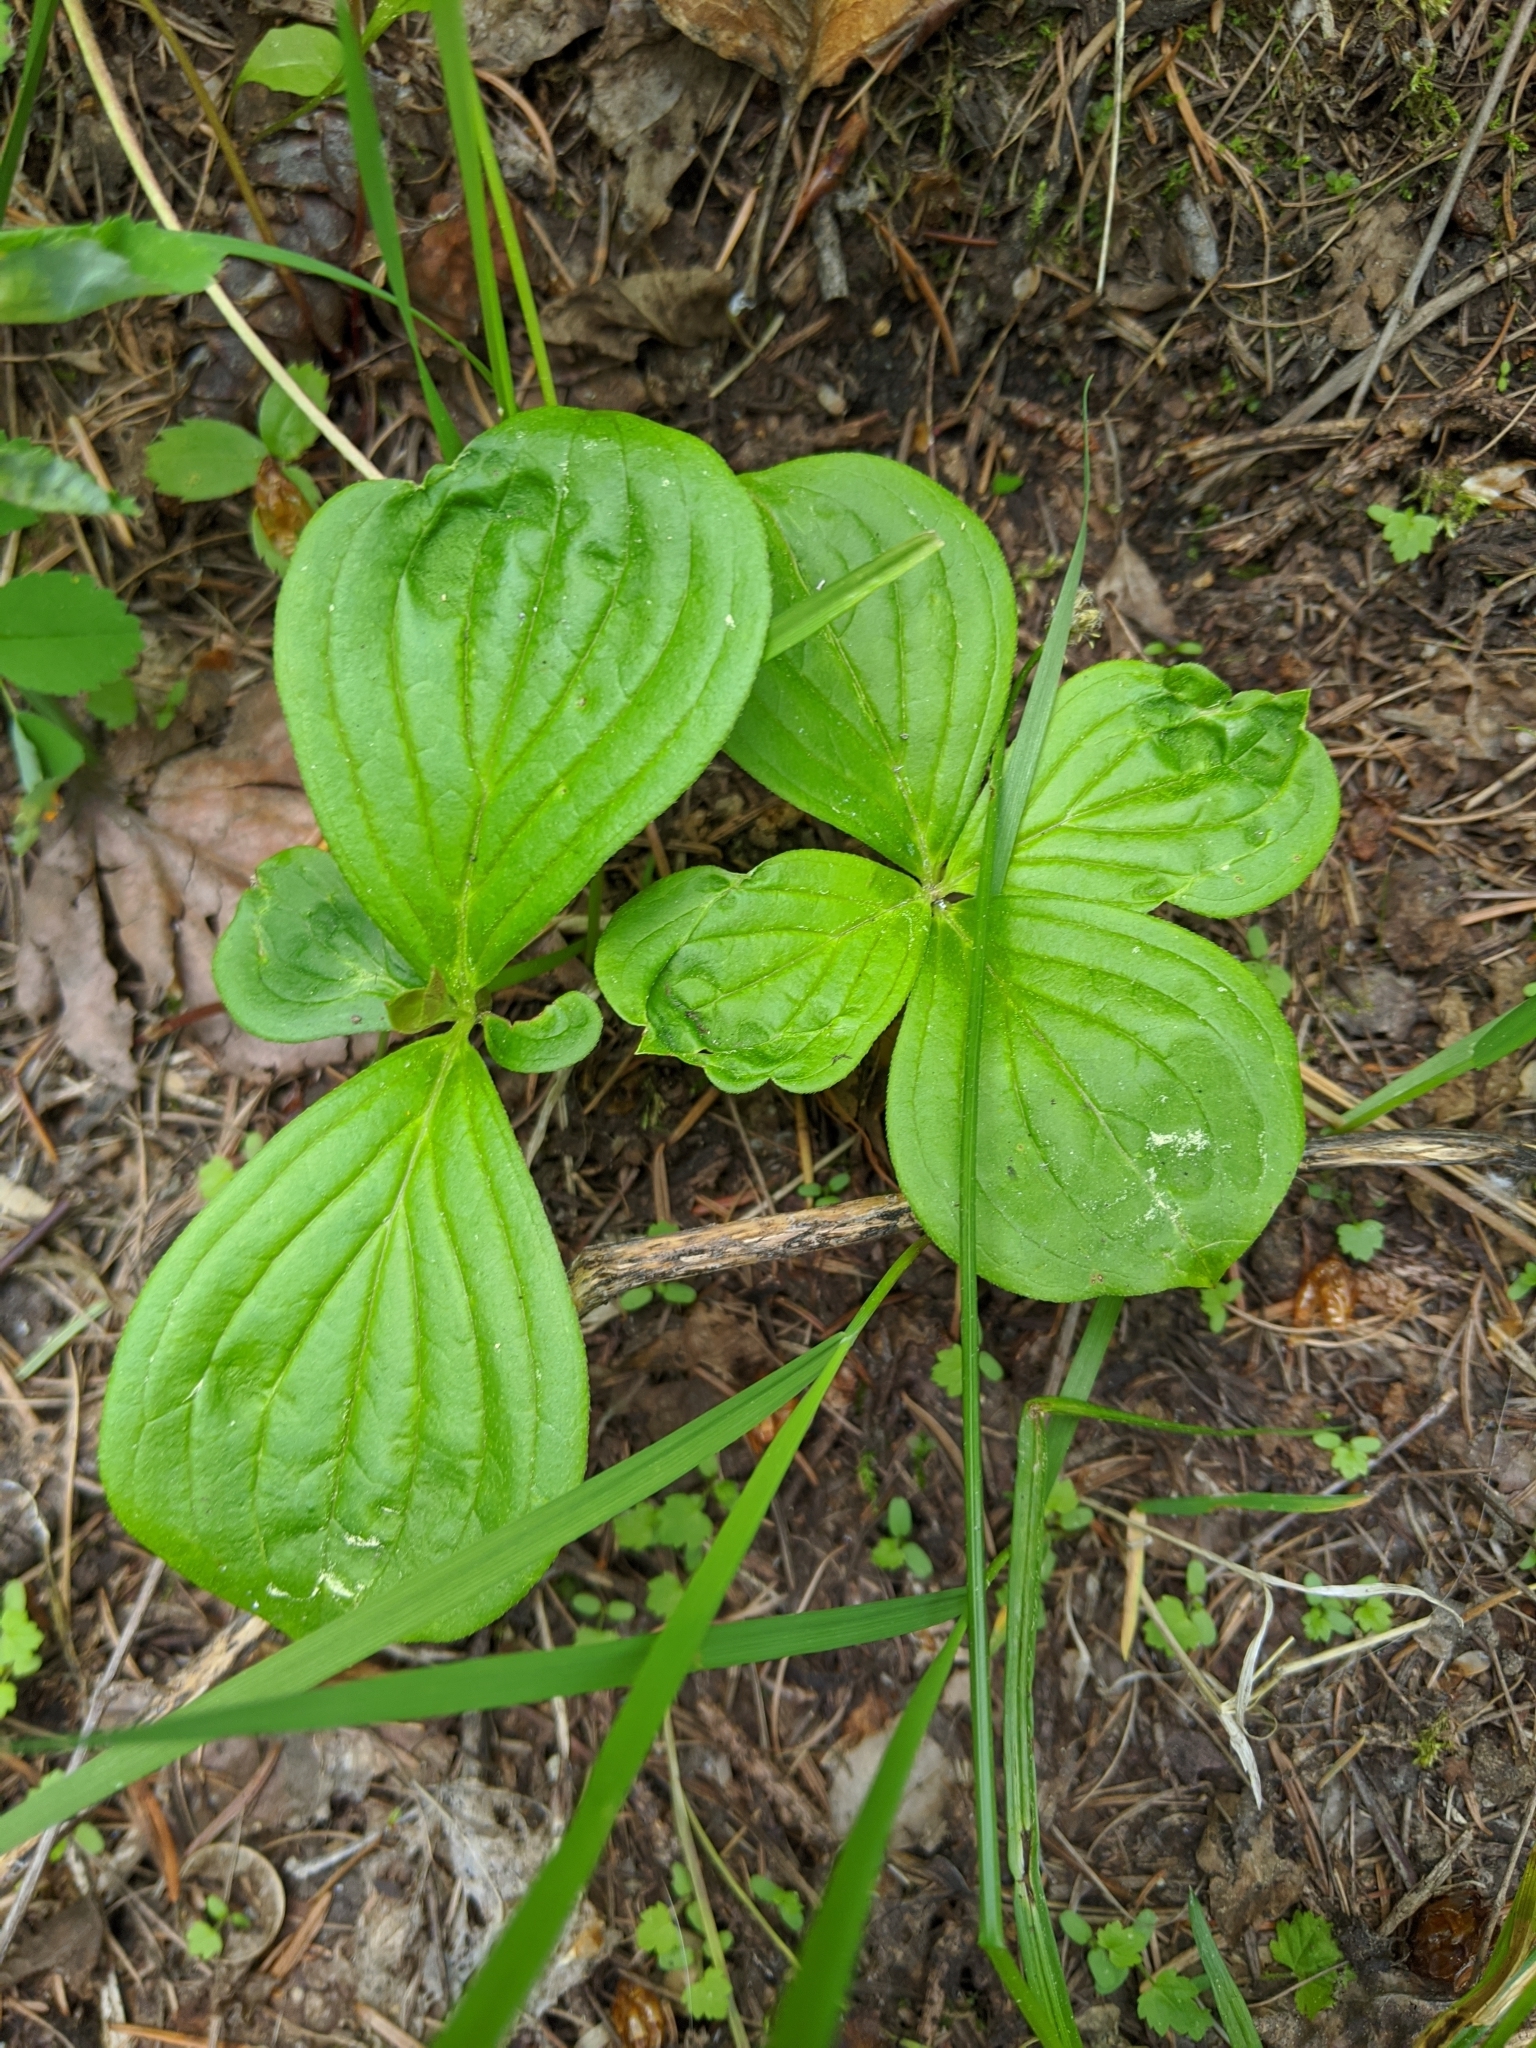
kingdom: Plantae
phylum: Tracheophyta
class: Magnoliopsida
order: Cornales
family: Cornaceae
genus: Cornus
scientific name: Cornus canadensis
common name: Creeping dogwood
